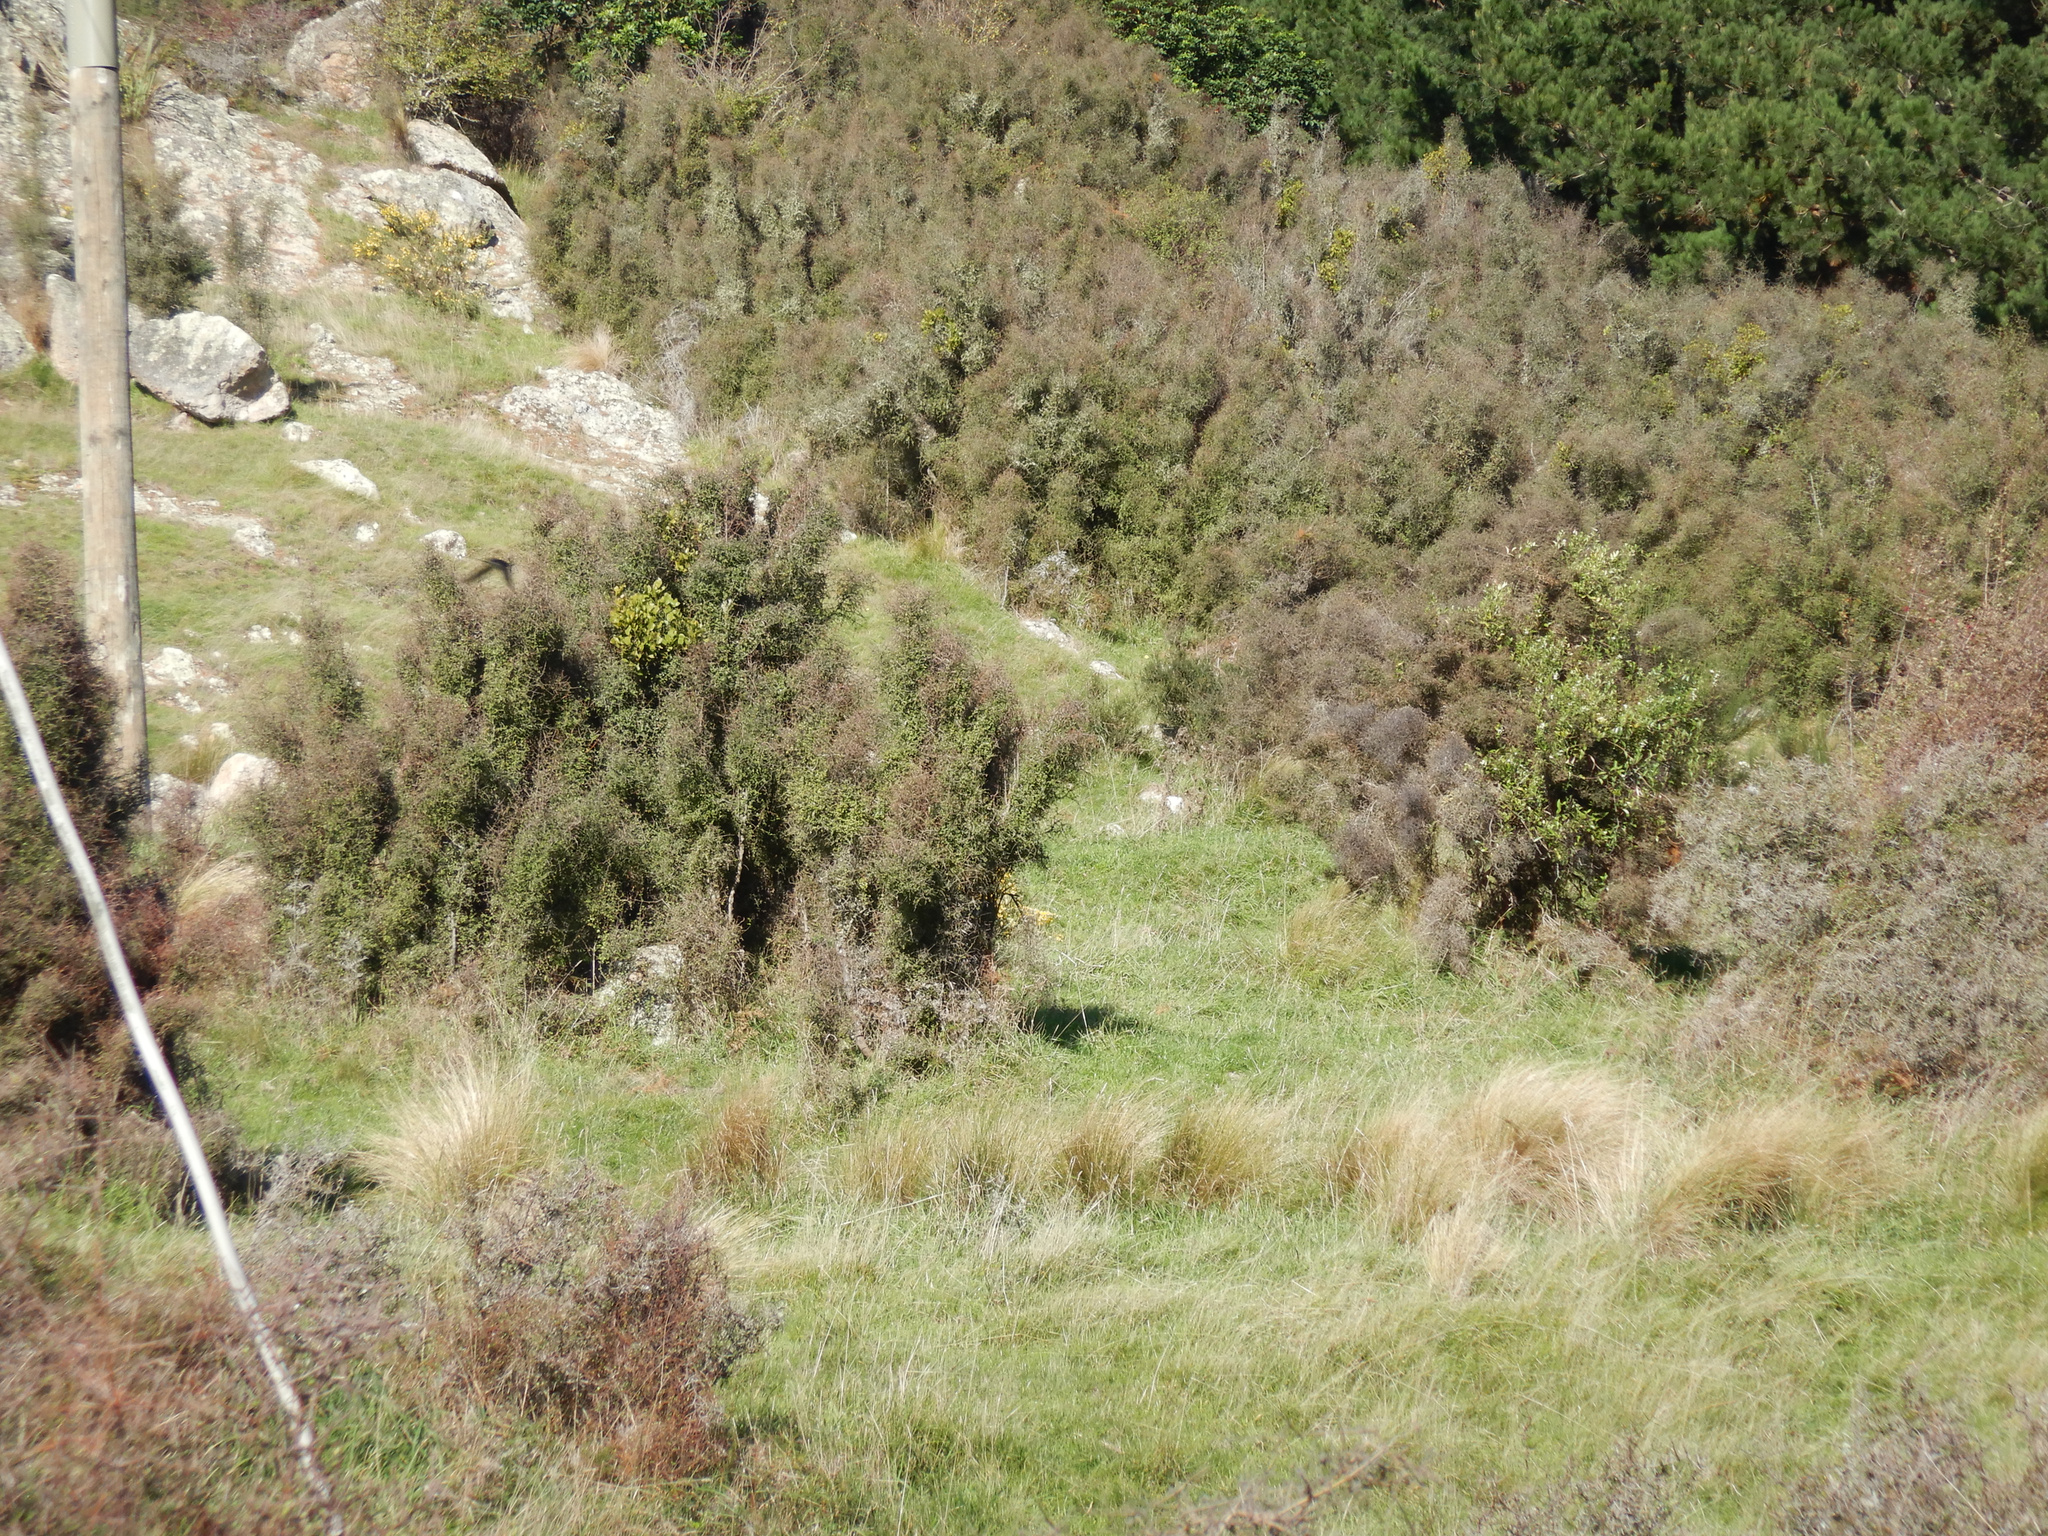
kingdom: Plantae
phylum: Tracheophyta
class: Magnoliopsida
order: Santalales
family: Loranthaceae
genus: Ileostylus
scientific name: Ileostylus micranthus
